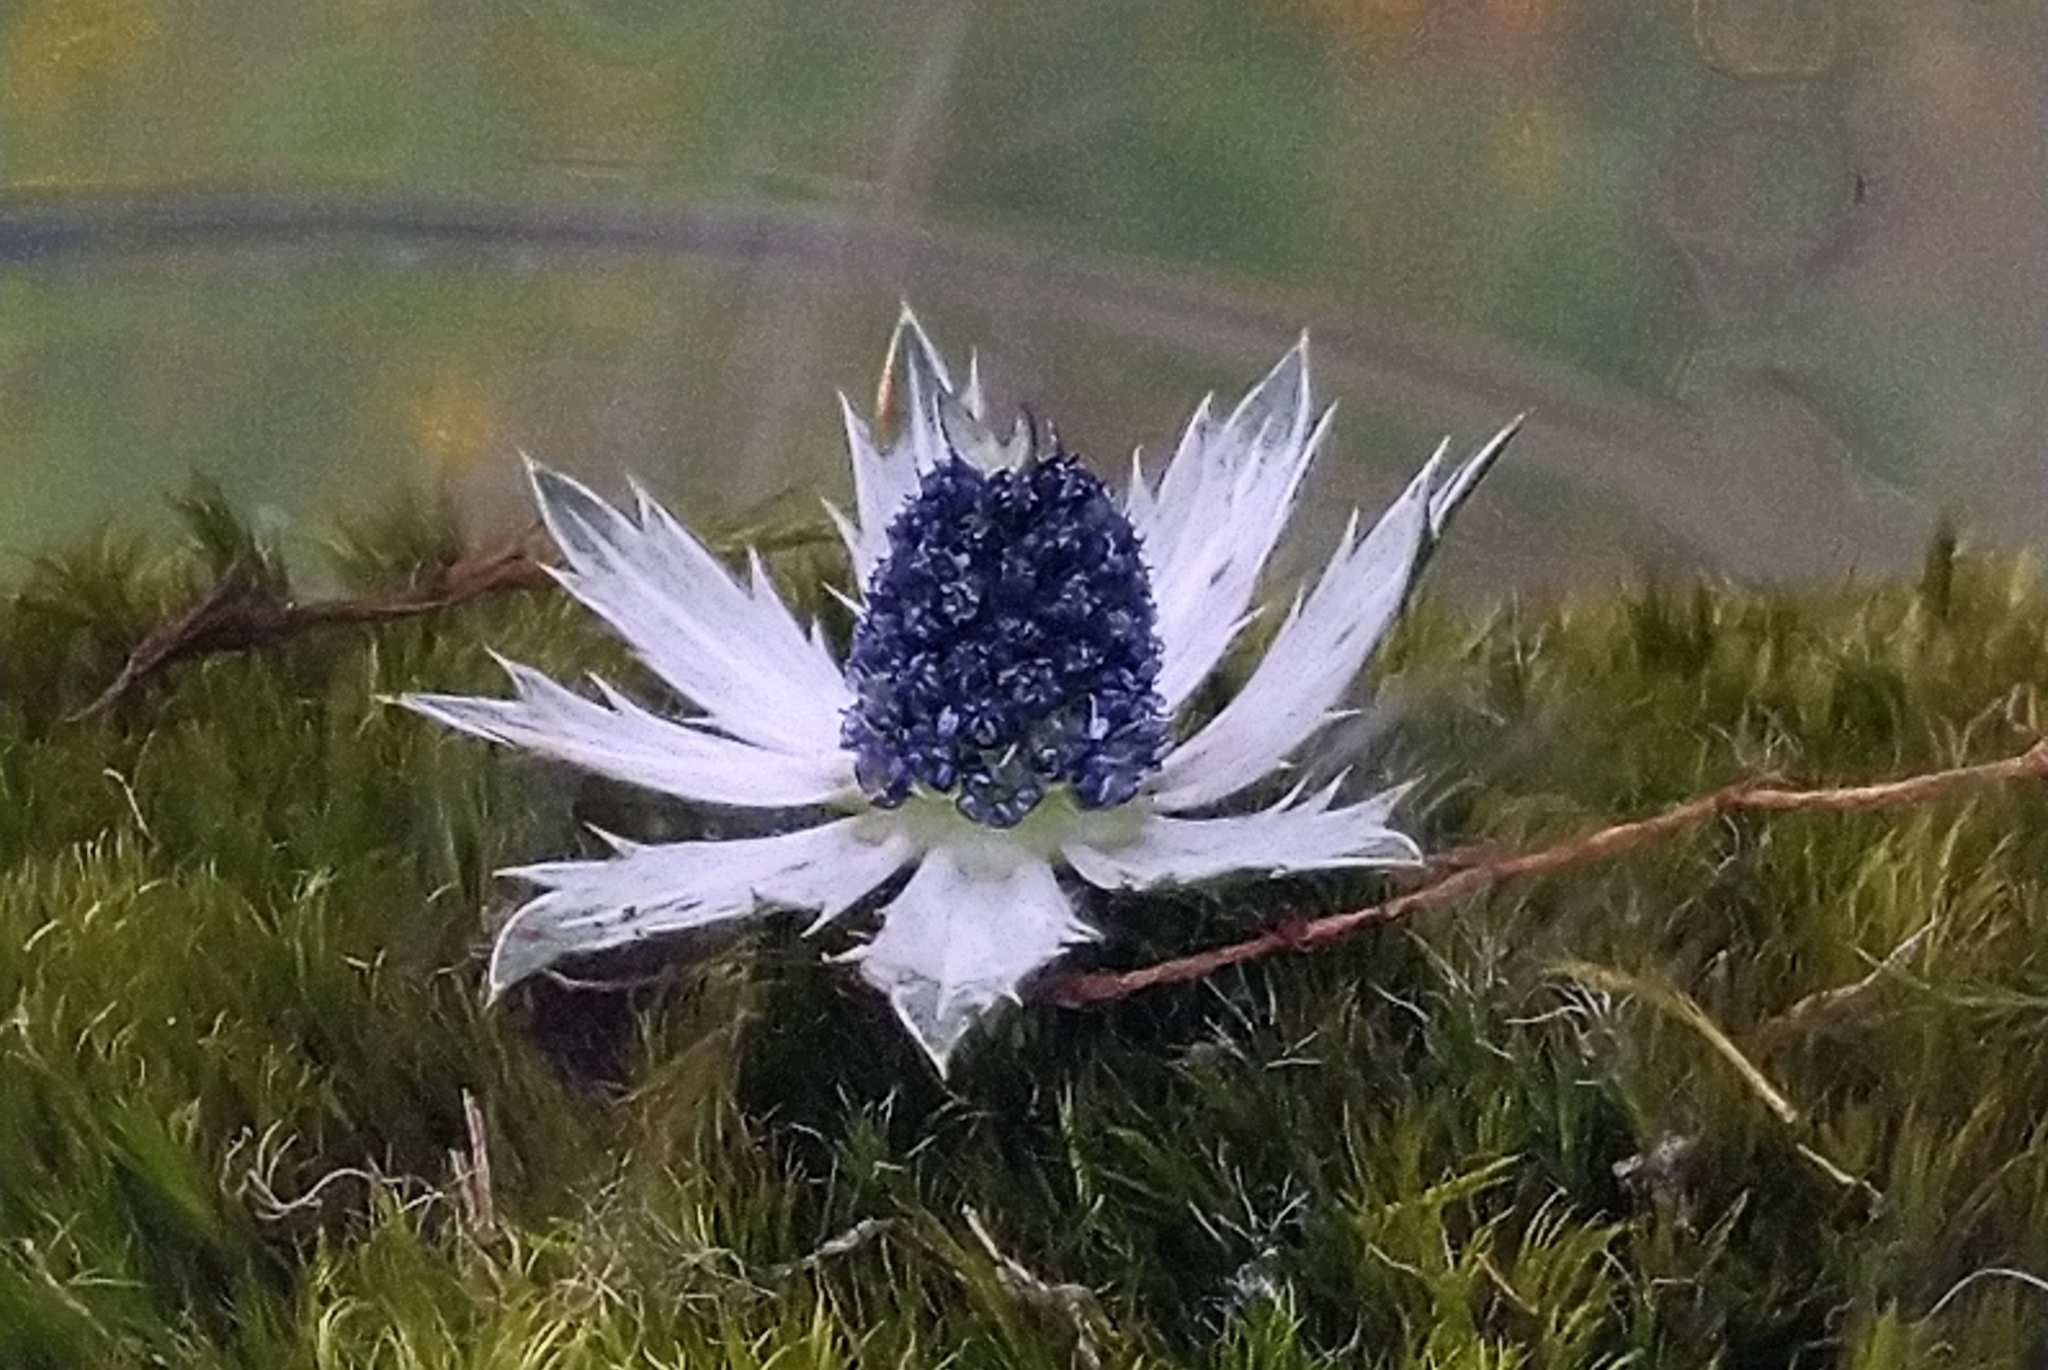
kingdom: Plantae
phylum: Tracheophyta
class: Magnoliopsida
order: Apiales
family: Apiaceae
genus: Eryngium
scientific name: Eryngium carlinae
